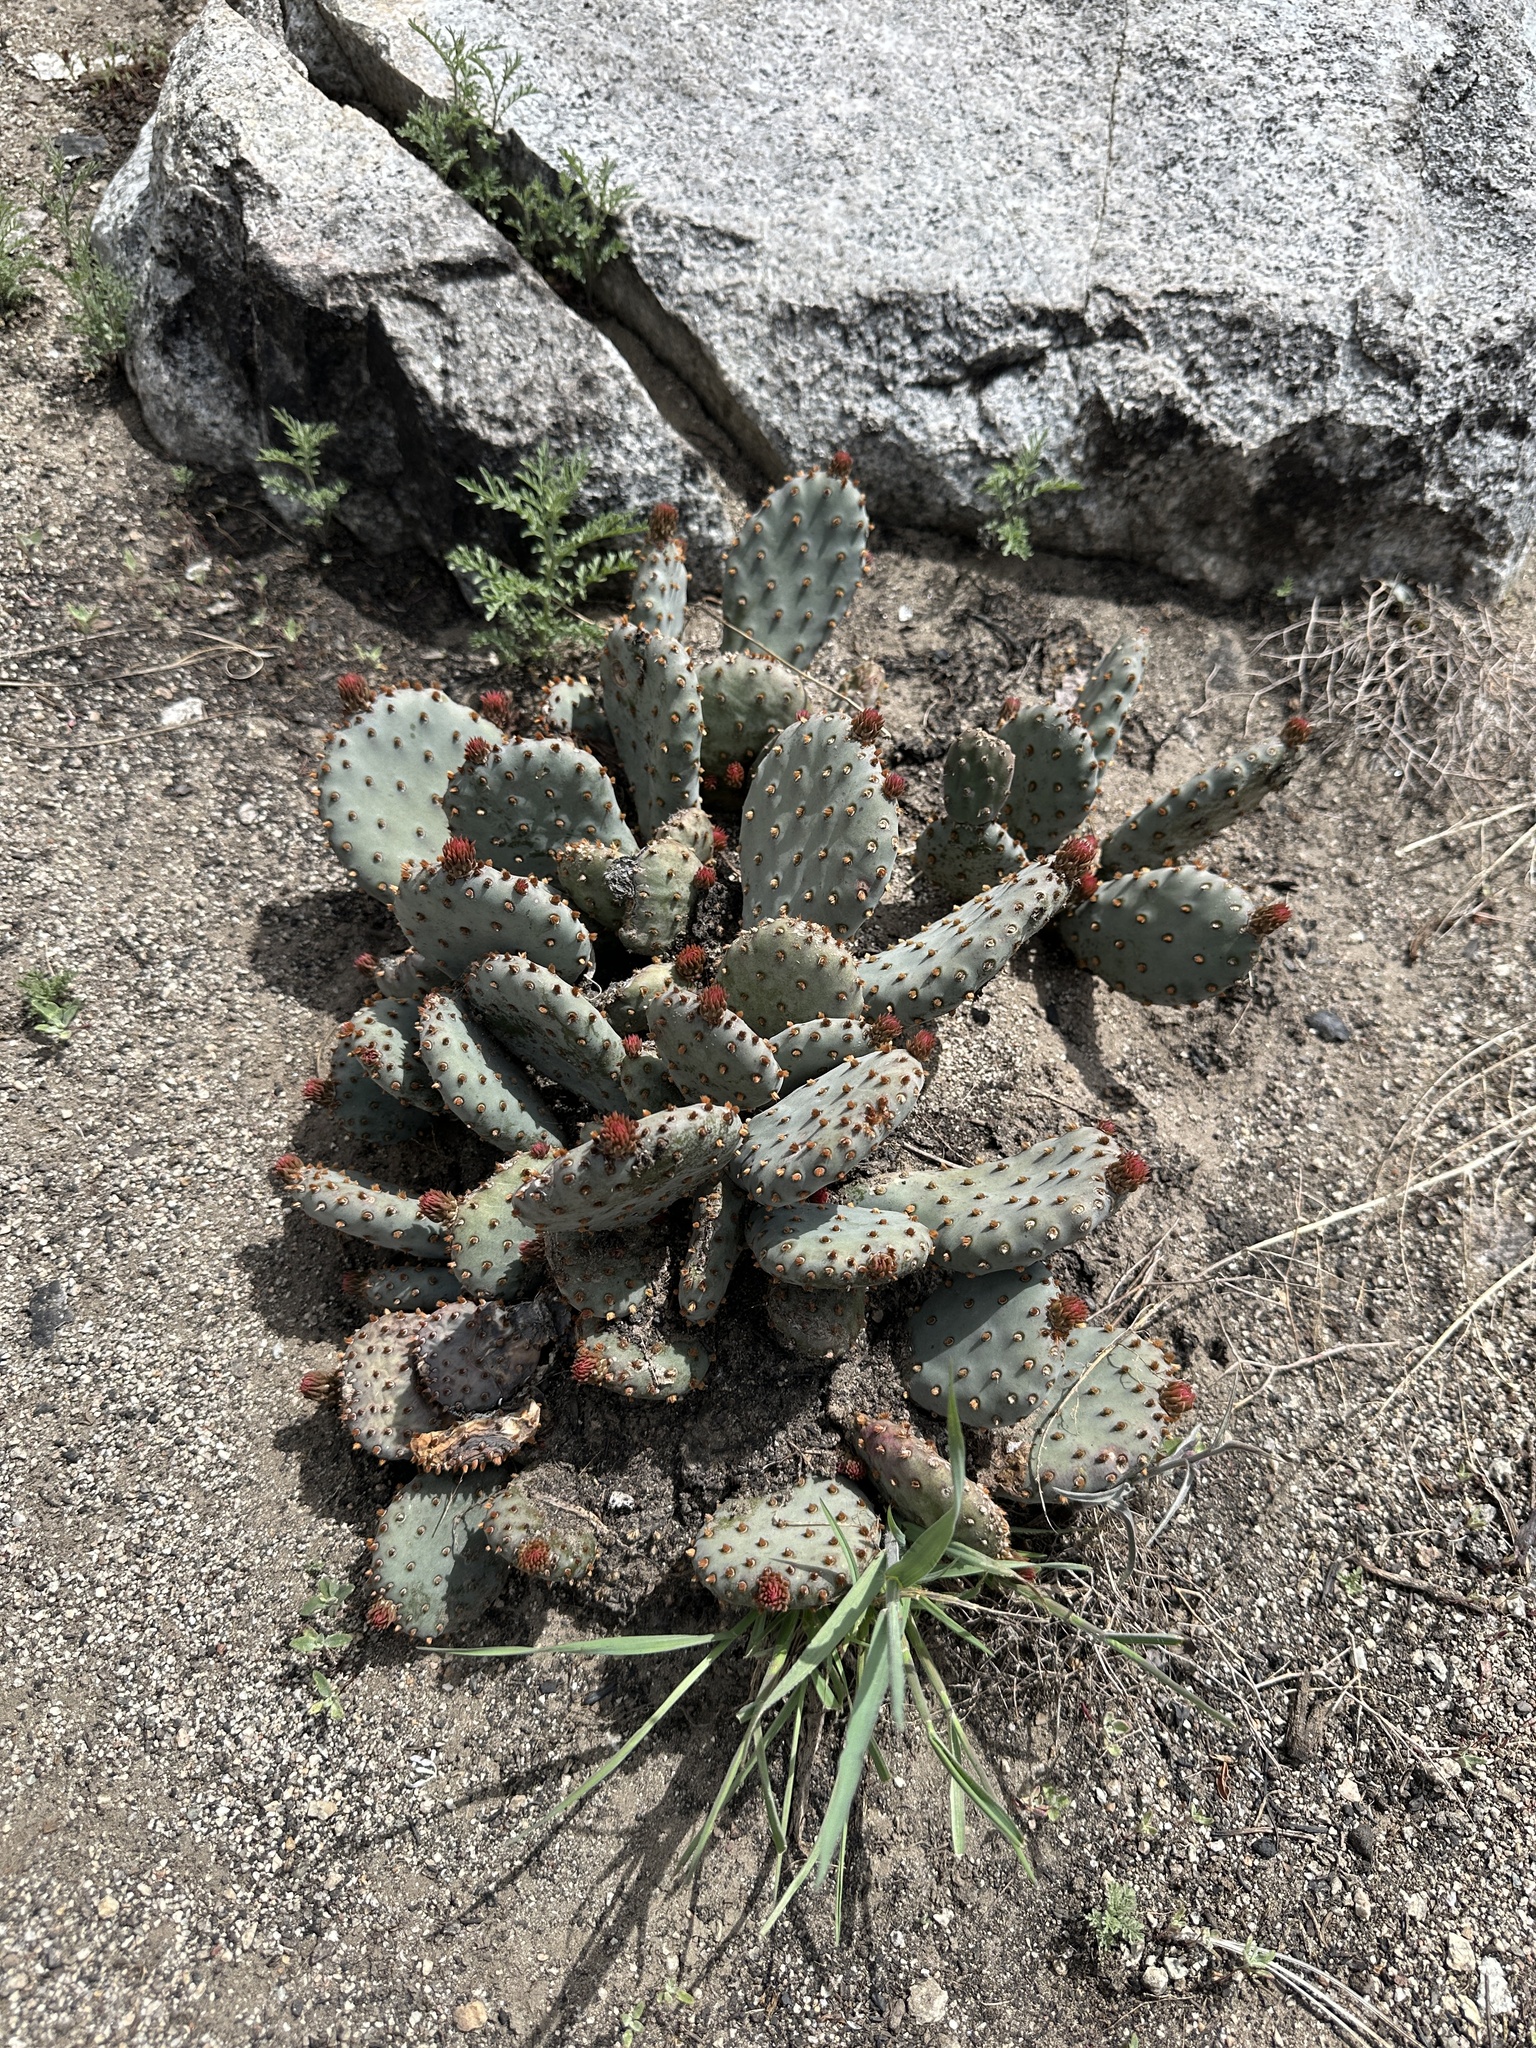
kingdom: Plantae
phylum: Tracheophyta
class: Magnoliopsida
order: Caryophyllales
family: Cactaceae
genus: Opuntia
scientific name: Opuntia basilaris
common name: Beavertail prickly-pear
